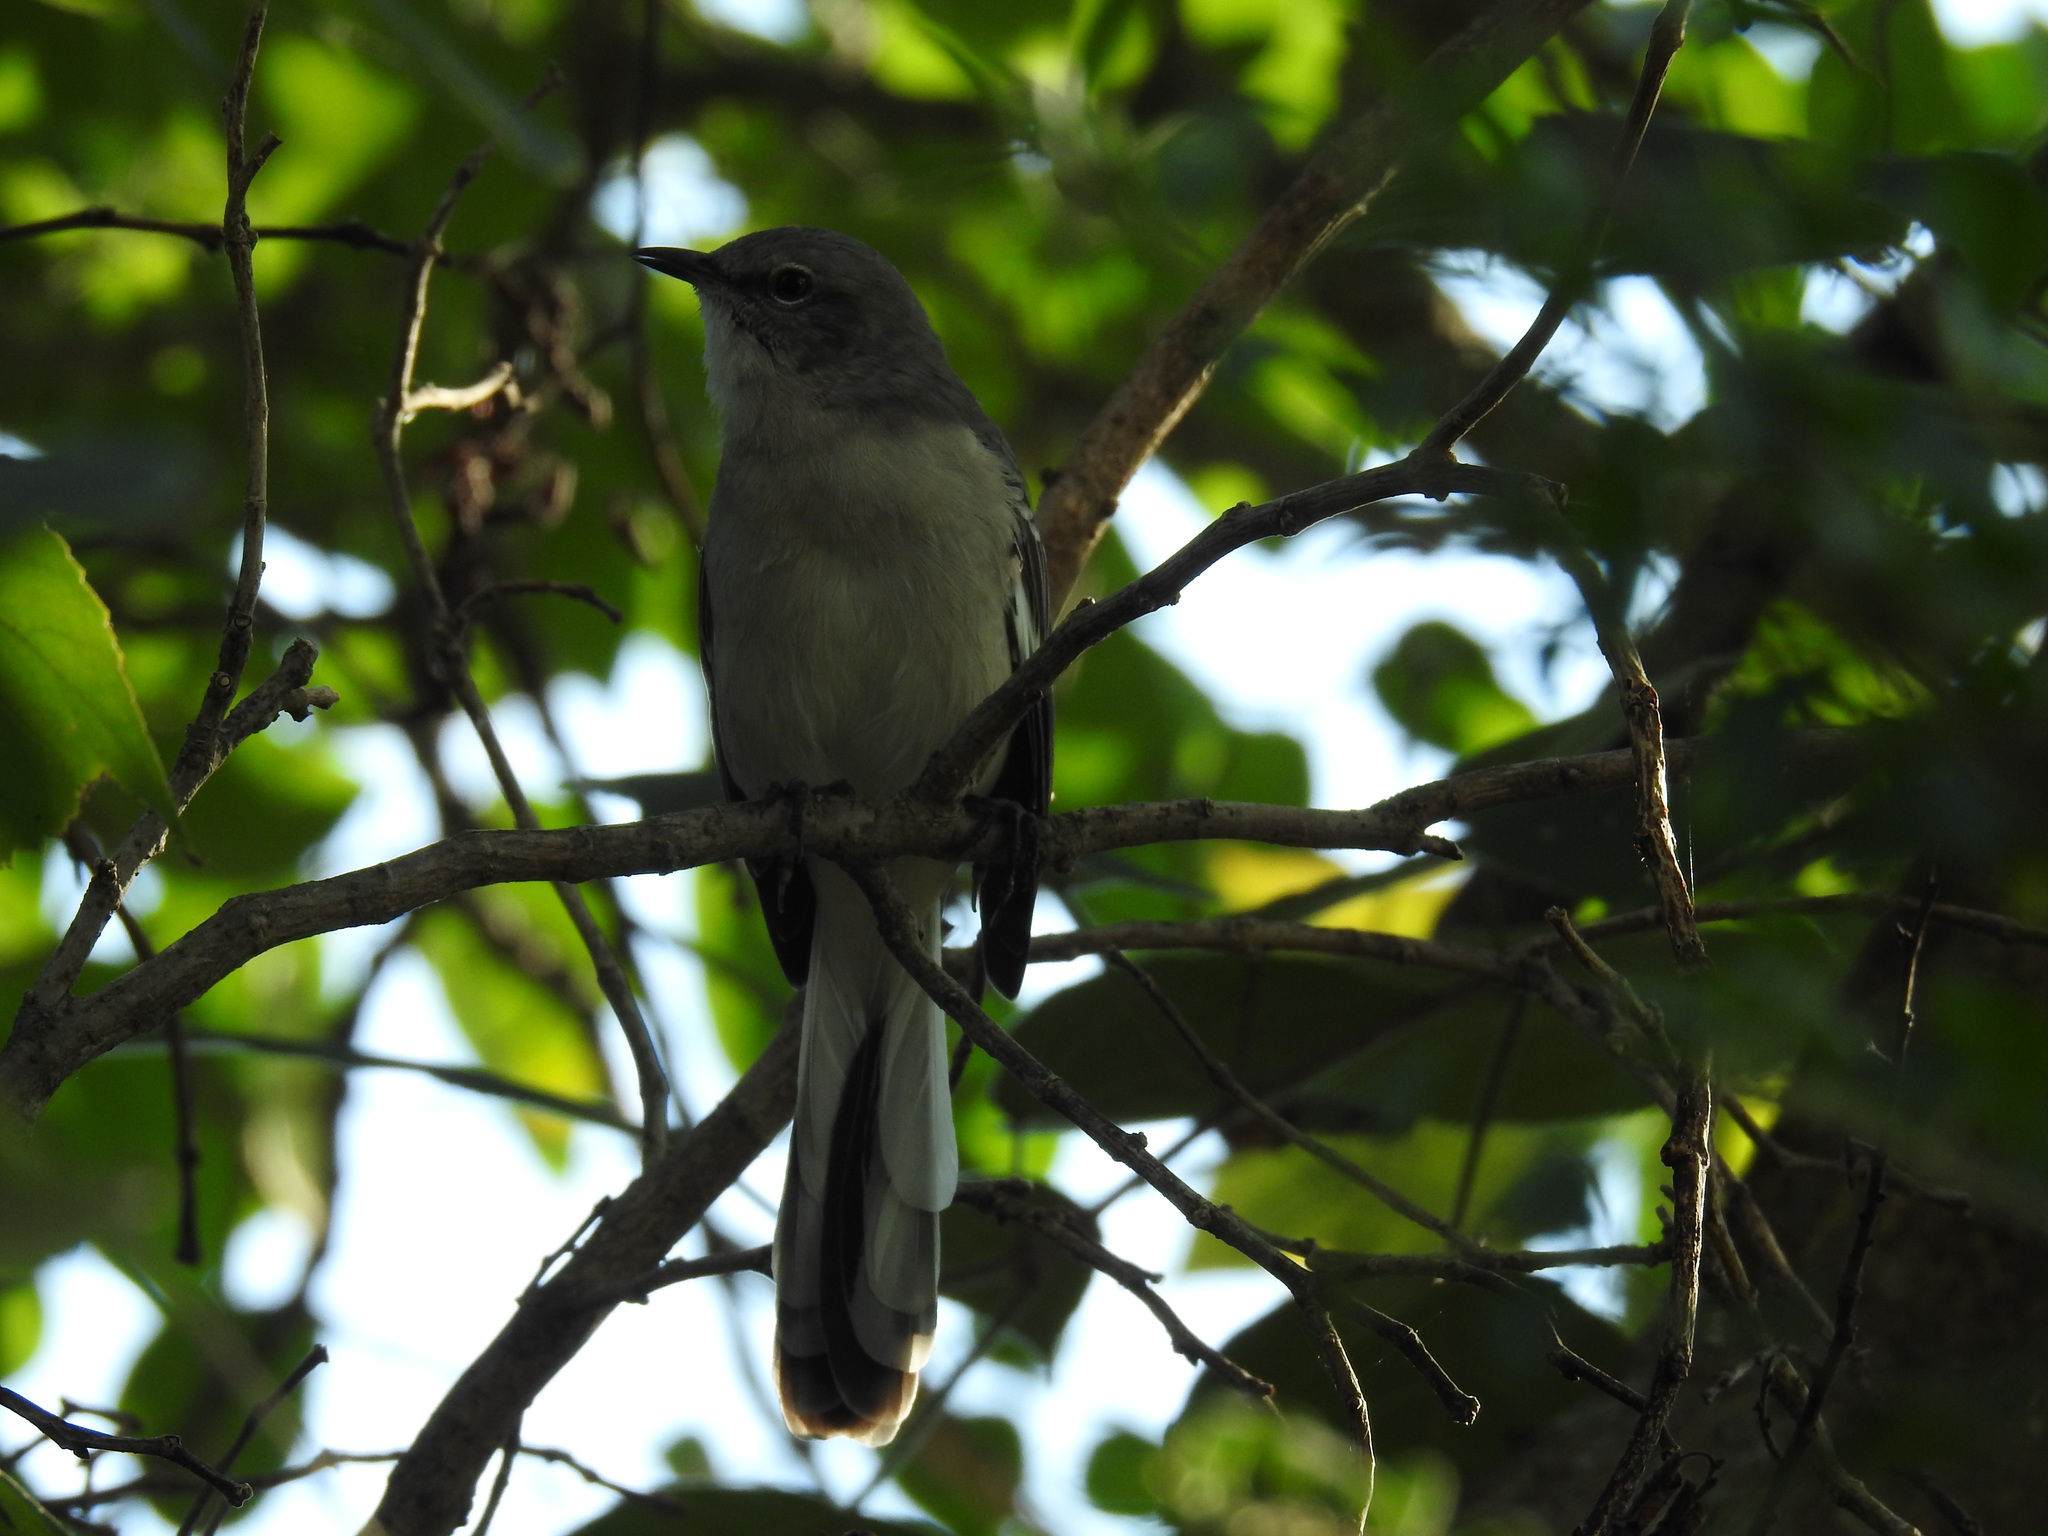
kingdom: Animalia
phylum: Chordata
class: Aves
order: Passeriformes
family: Mimidae
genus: Mimus
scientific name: Mimus polyglottos
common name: Northern mockingbird
